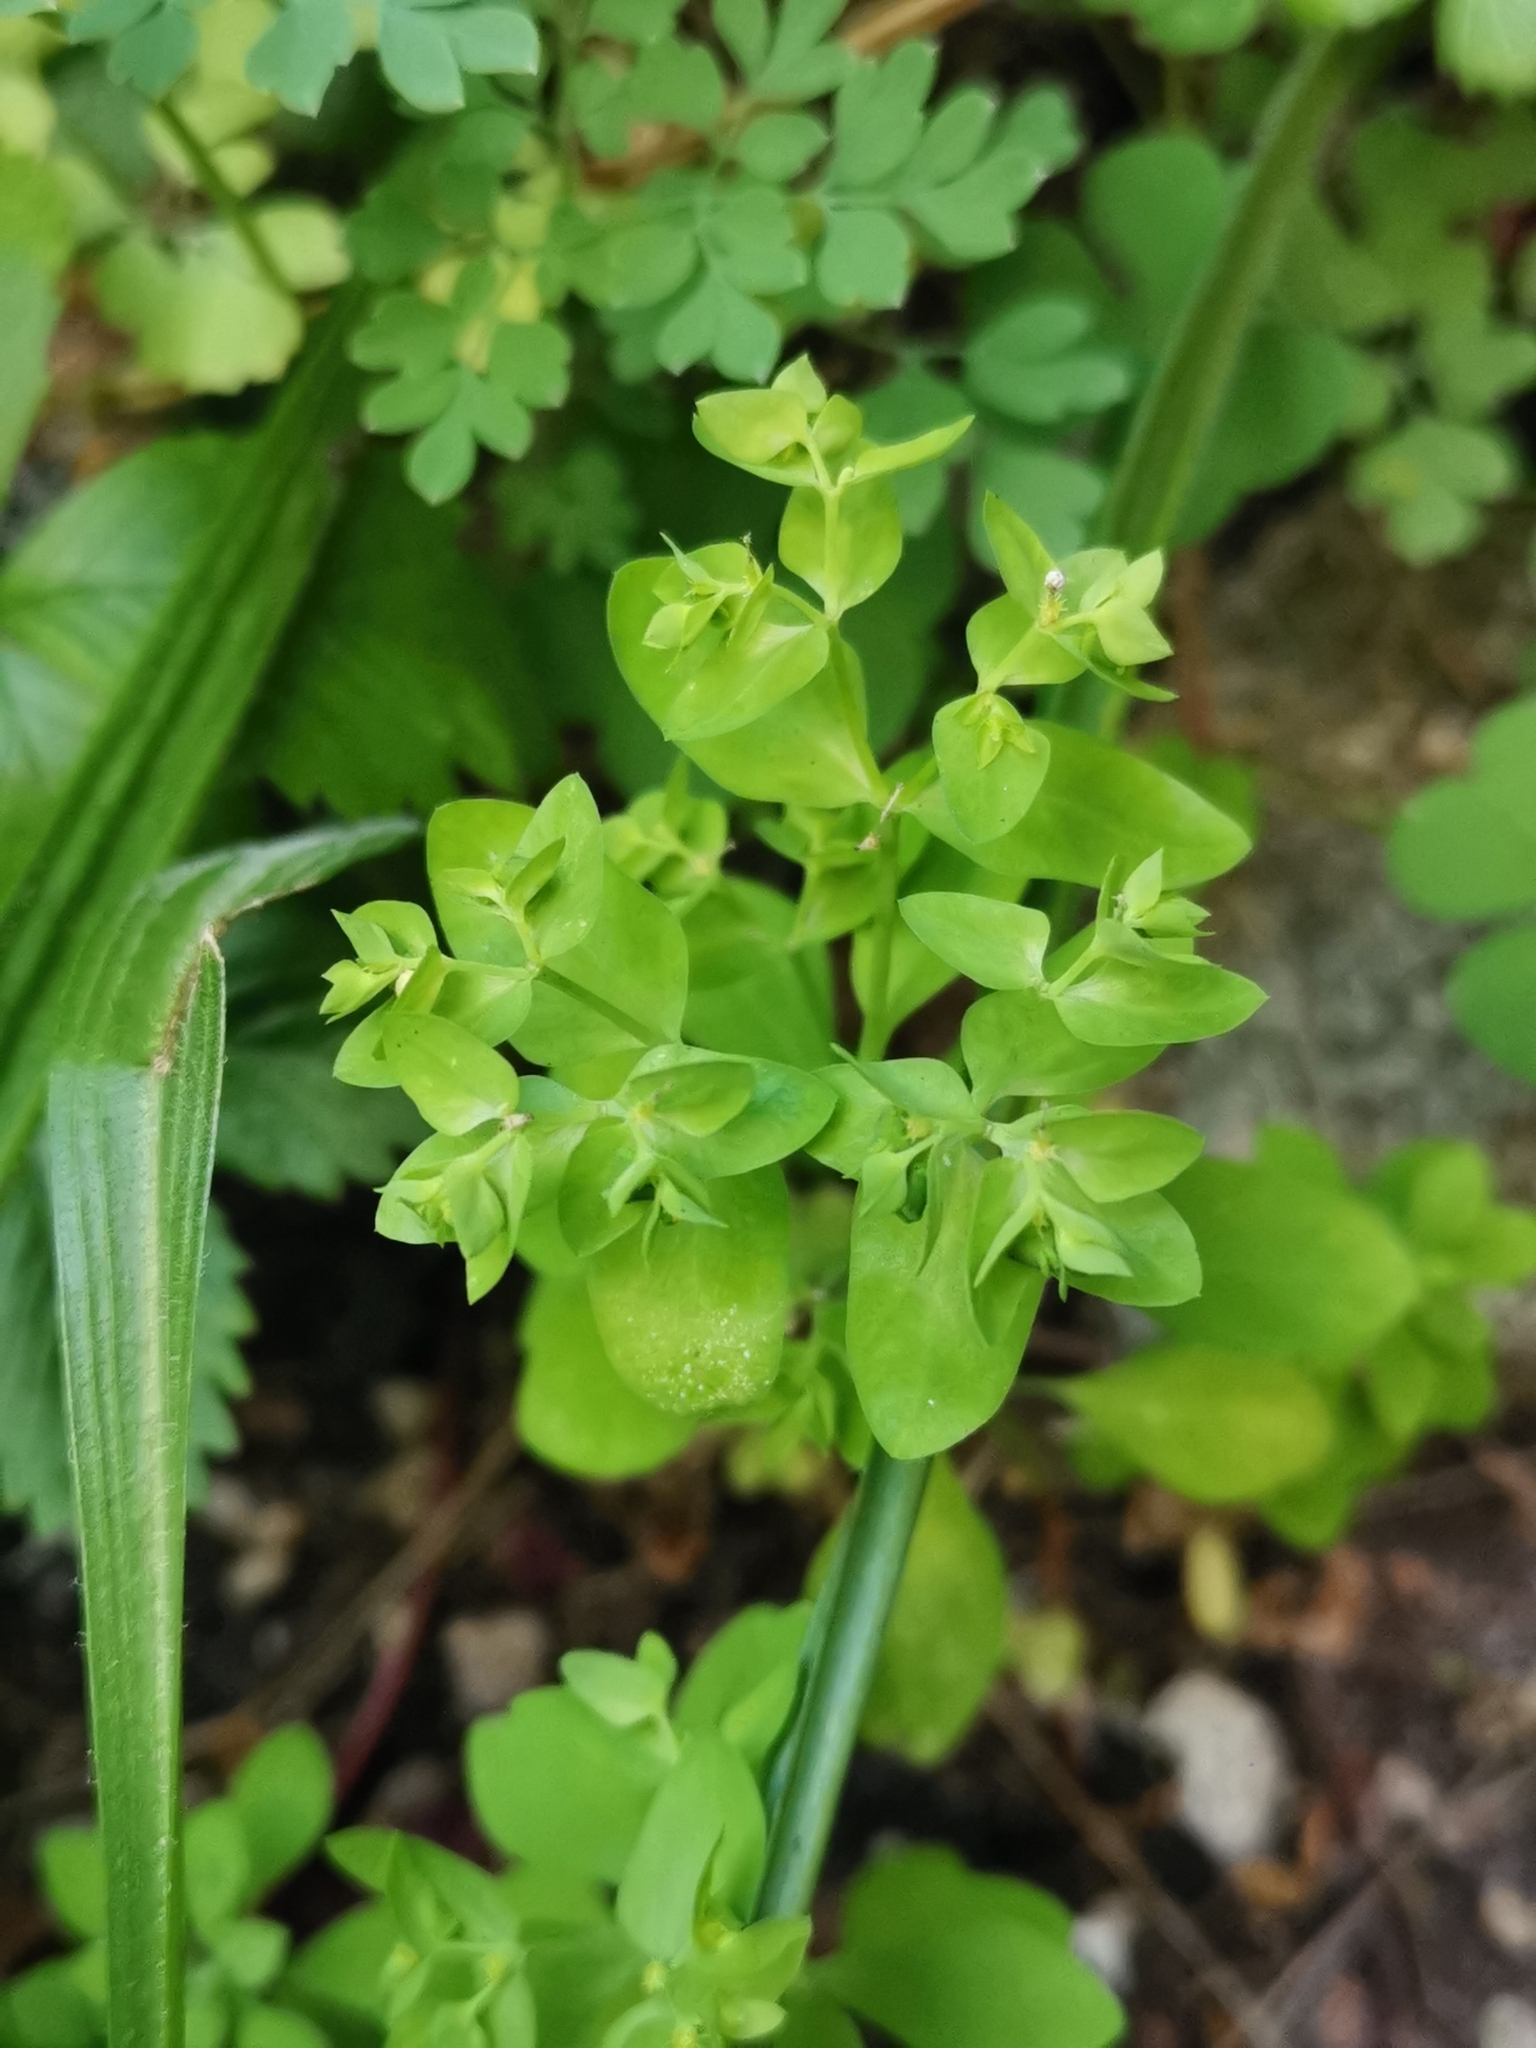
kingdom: Plantae
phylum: Tracheophyta
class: Magnoliopsida
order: Malpighiales
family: Euphorbiaceae
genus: Euphorbia
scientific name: Euphorbia peplus
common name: Petty spurge
